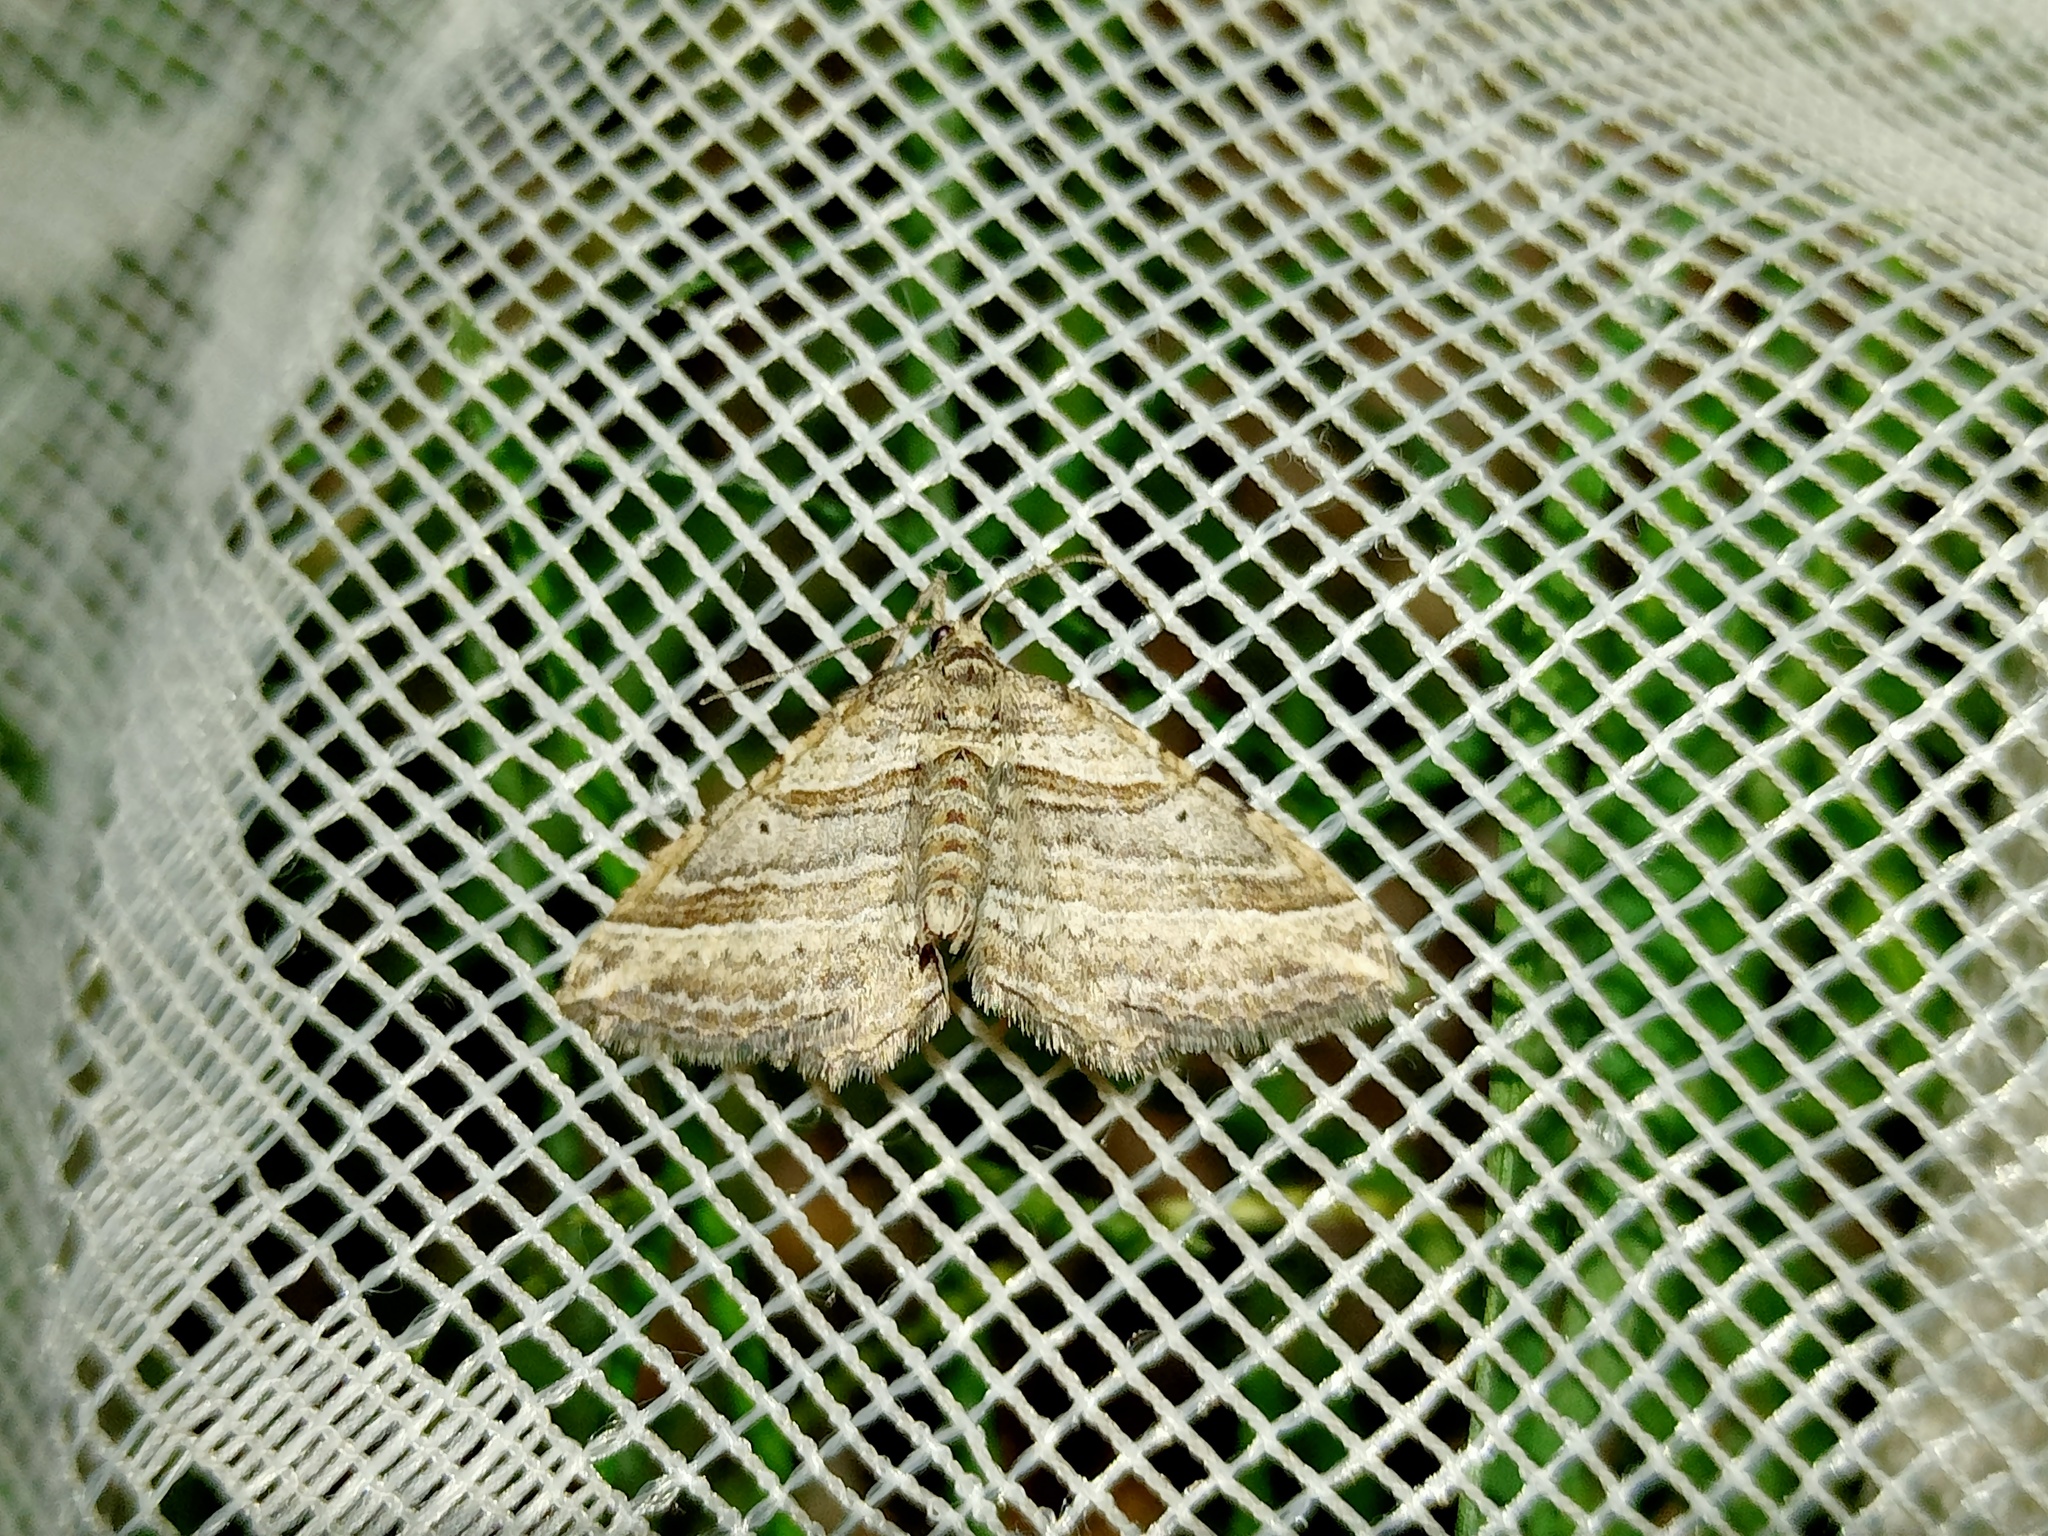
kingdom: Animalia
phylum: Arthropoda
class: Insecta
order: Lepidoptera
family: Geometridae
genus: Costaconvexa
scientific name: Costaconvexa polygrammata
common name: Many-lined
